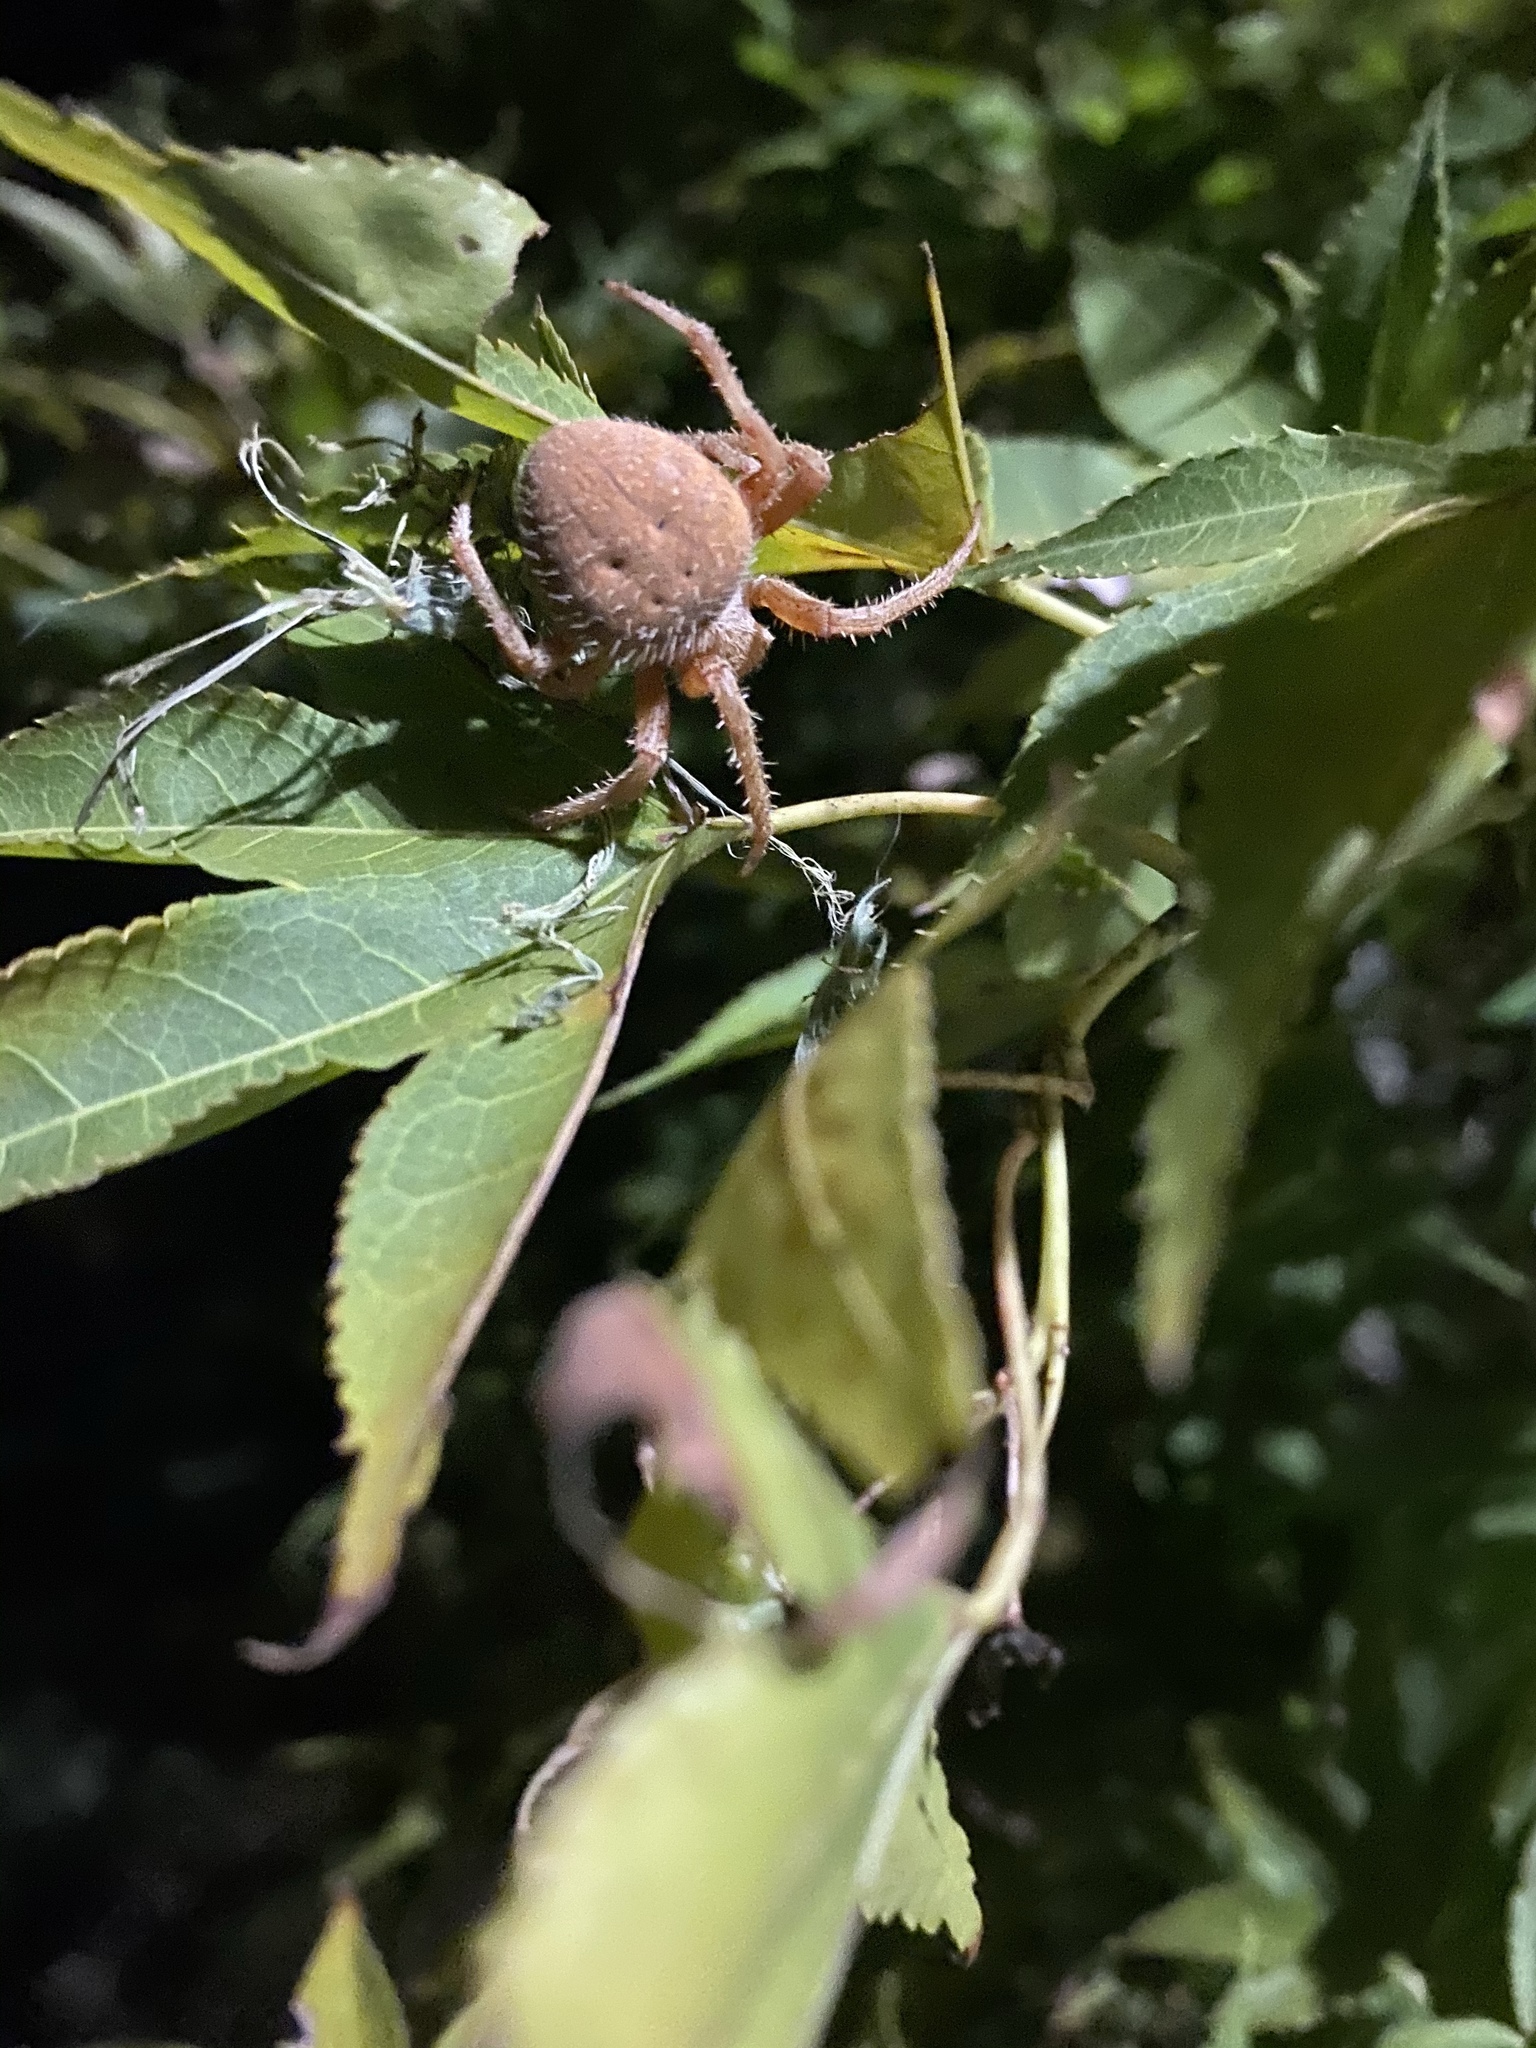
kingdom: Animalia
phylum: Arthropoda
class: Arachnida
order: Araneae
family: Araneidae
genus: Neoscona
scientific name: Neoscona crucifera
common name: Spotted orbweaver
